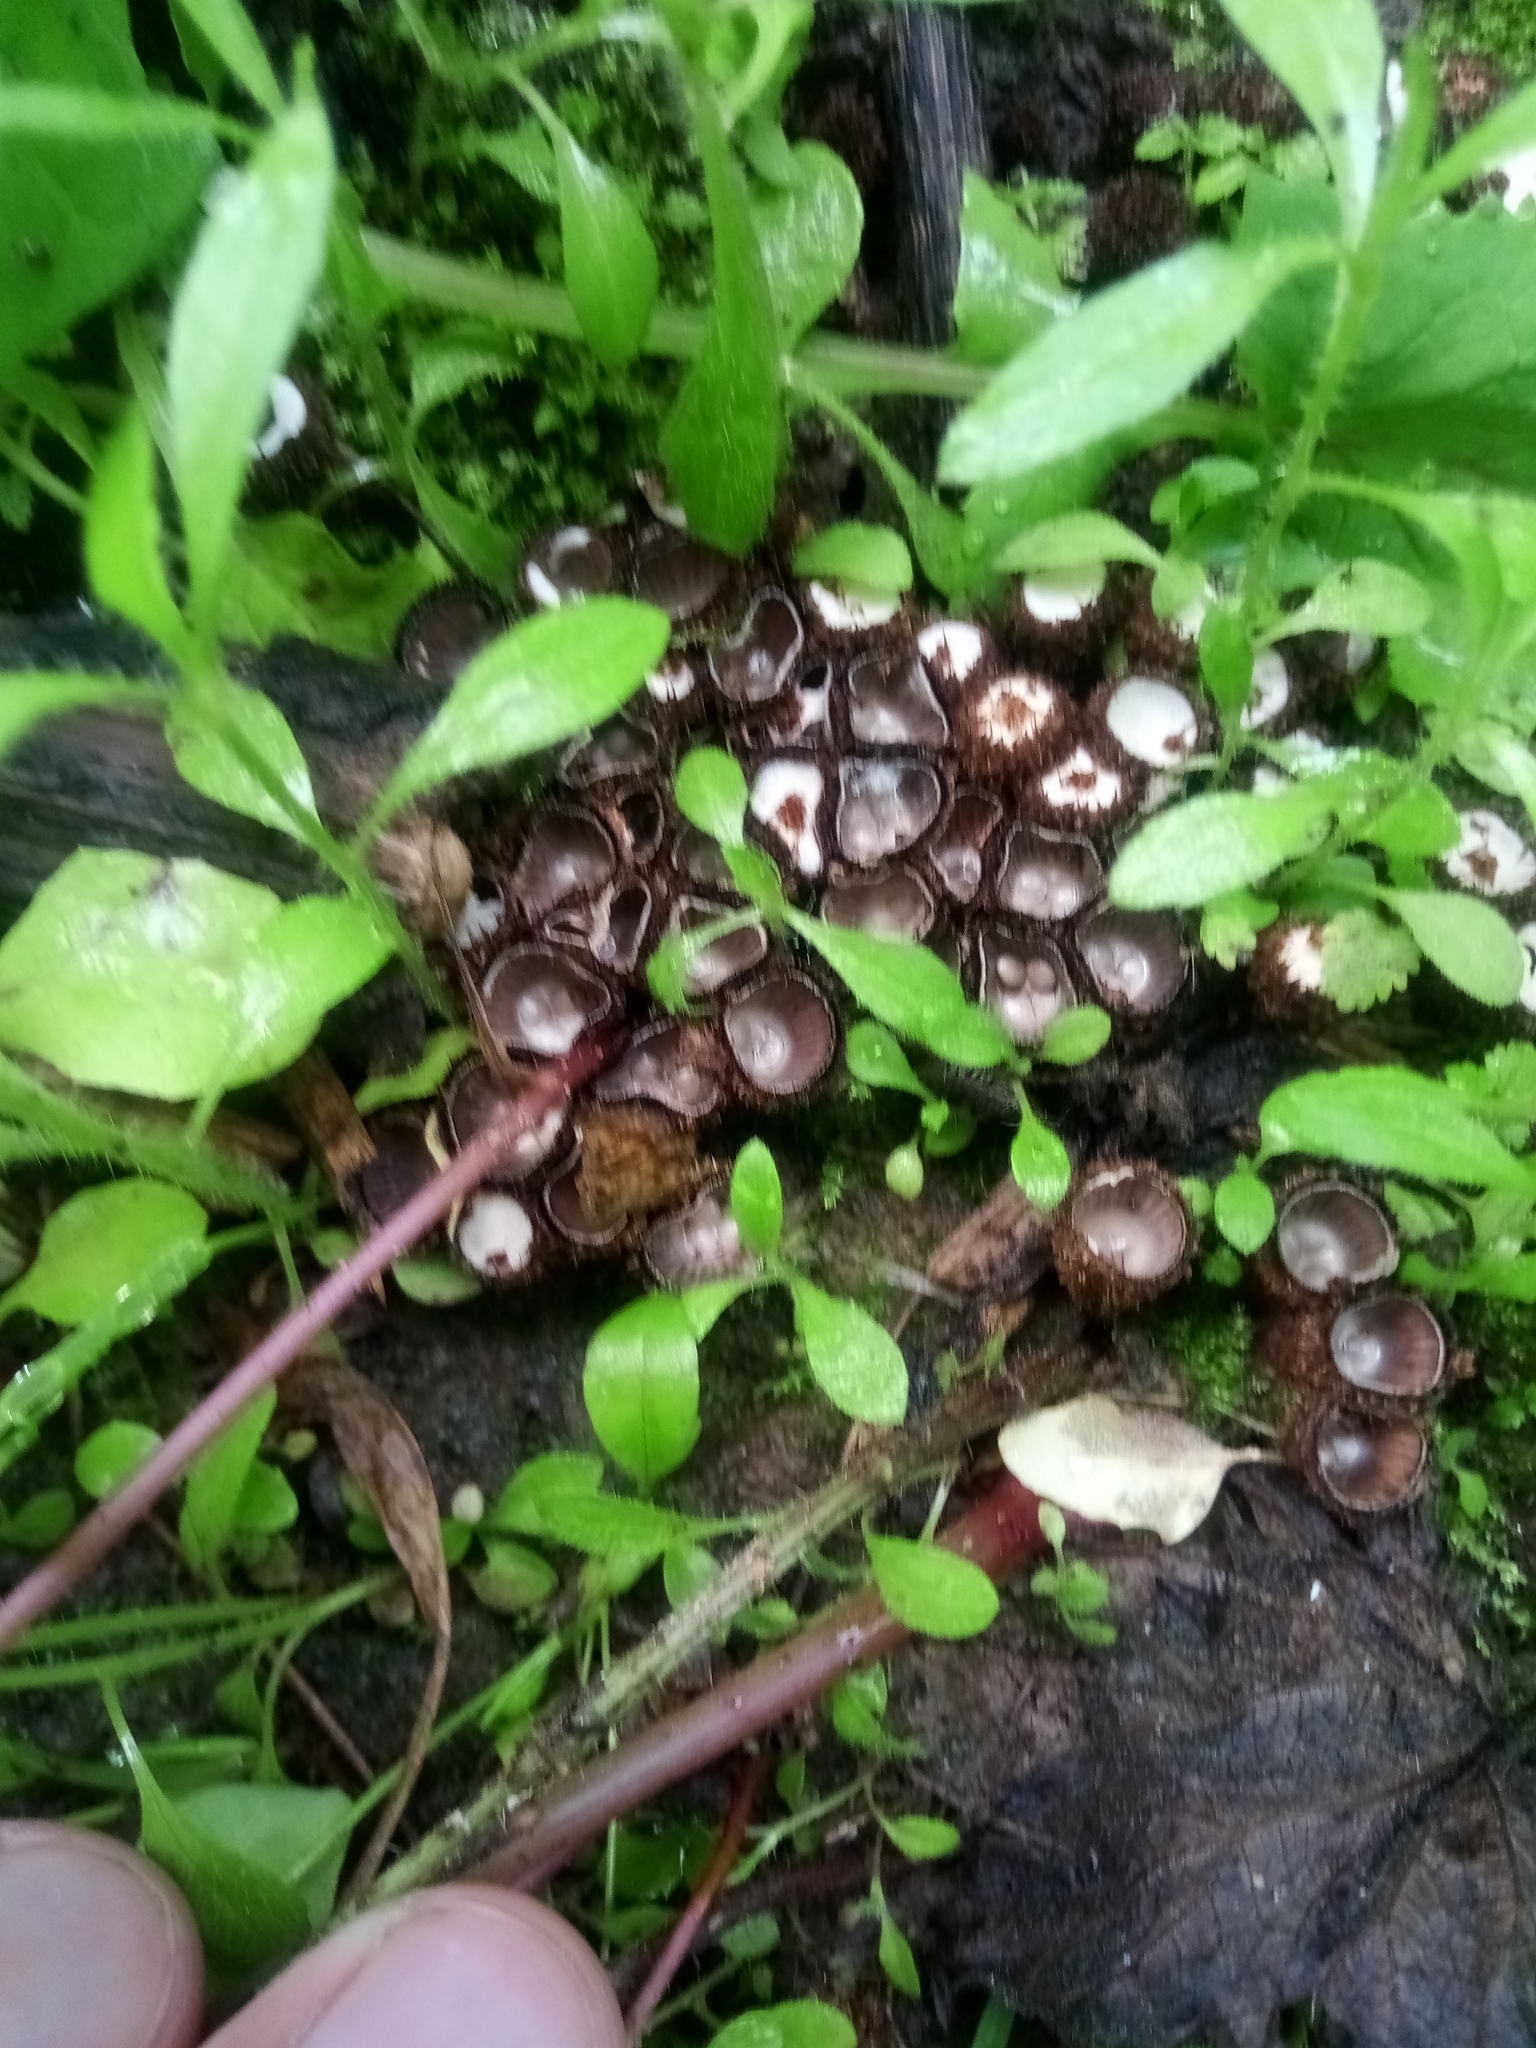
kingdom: Fungi
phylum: Basidiomycota
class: Agaricomycetes
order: Agaricales
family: Agaricaceae
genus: Cyathus
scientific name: Cyathus striatus
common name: Fluted bird's nest
